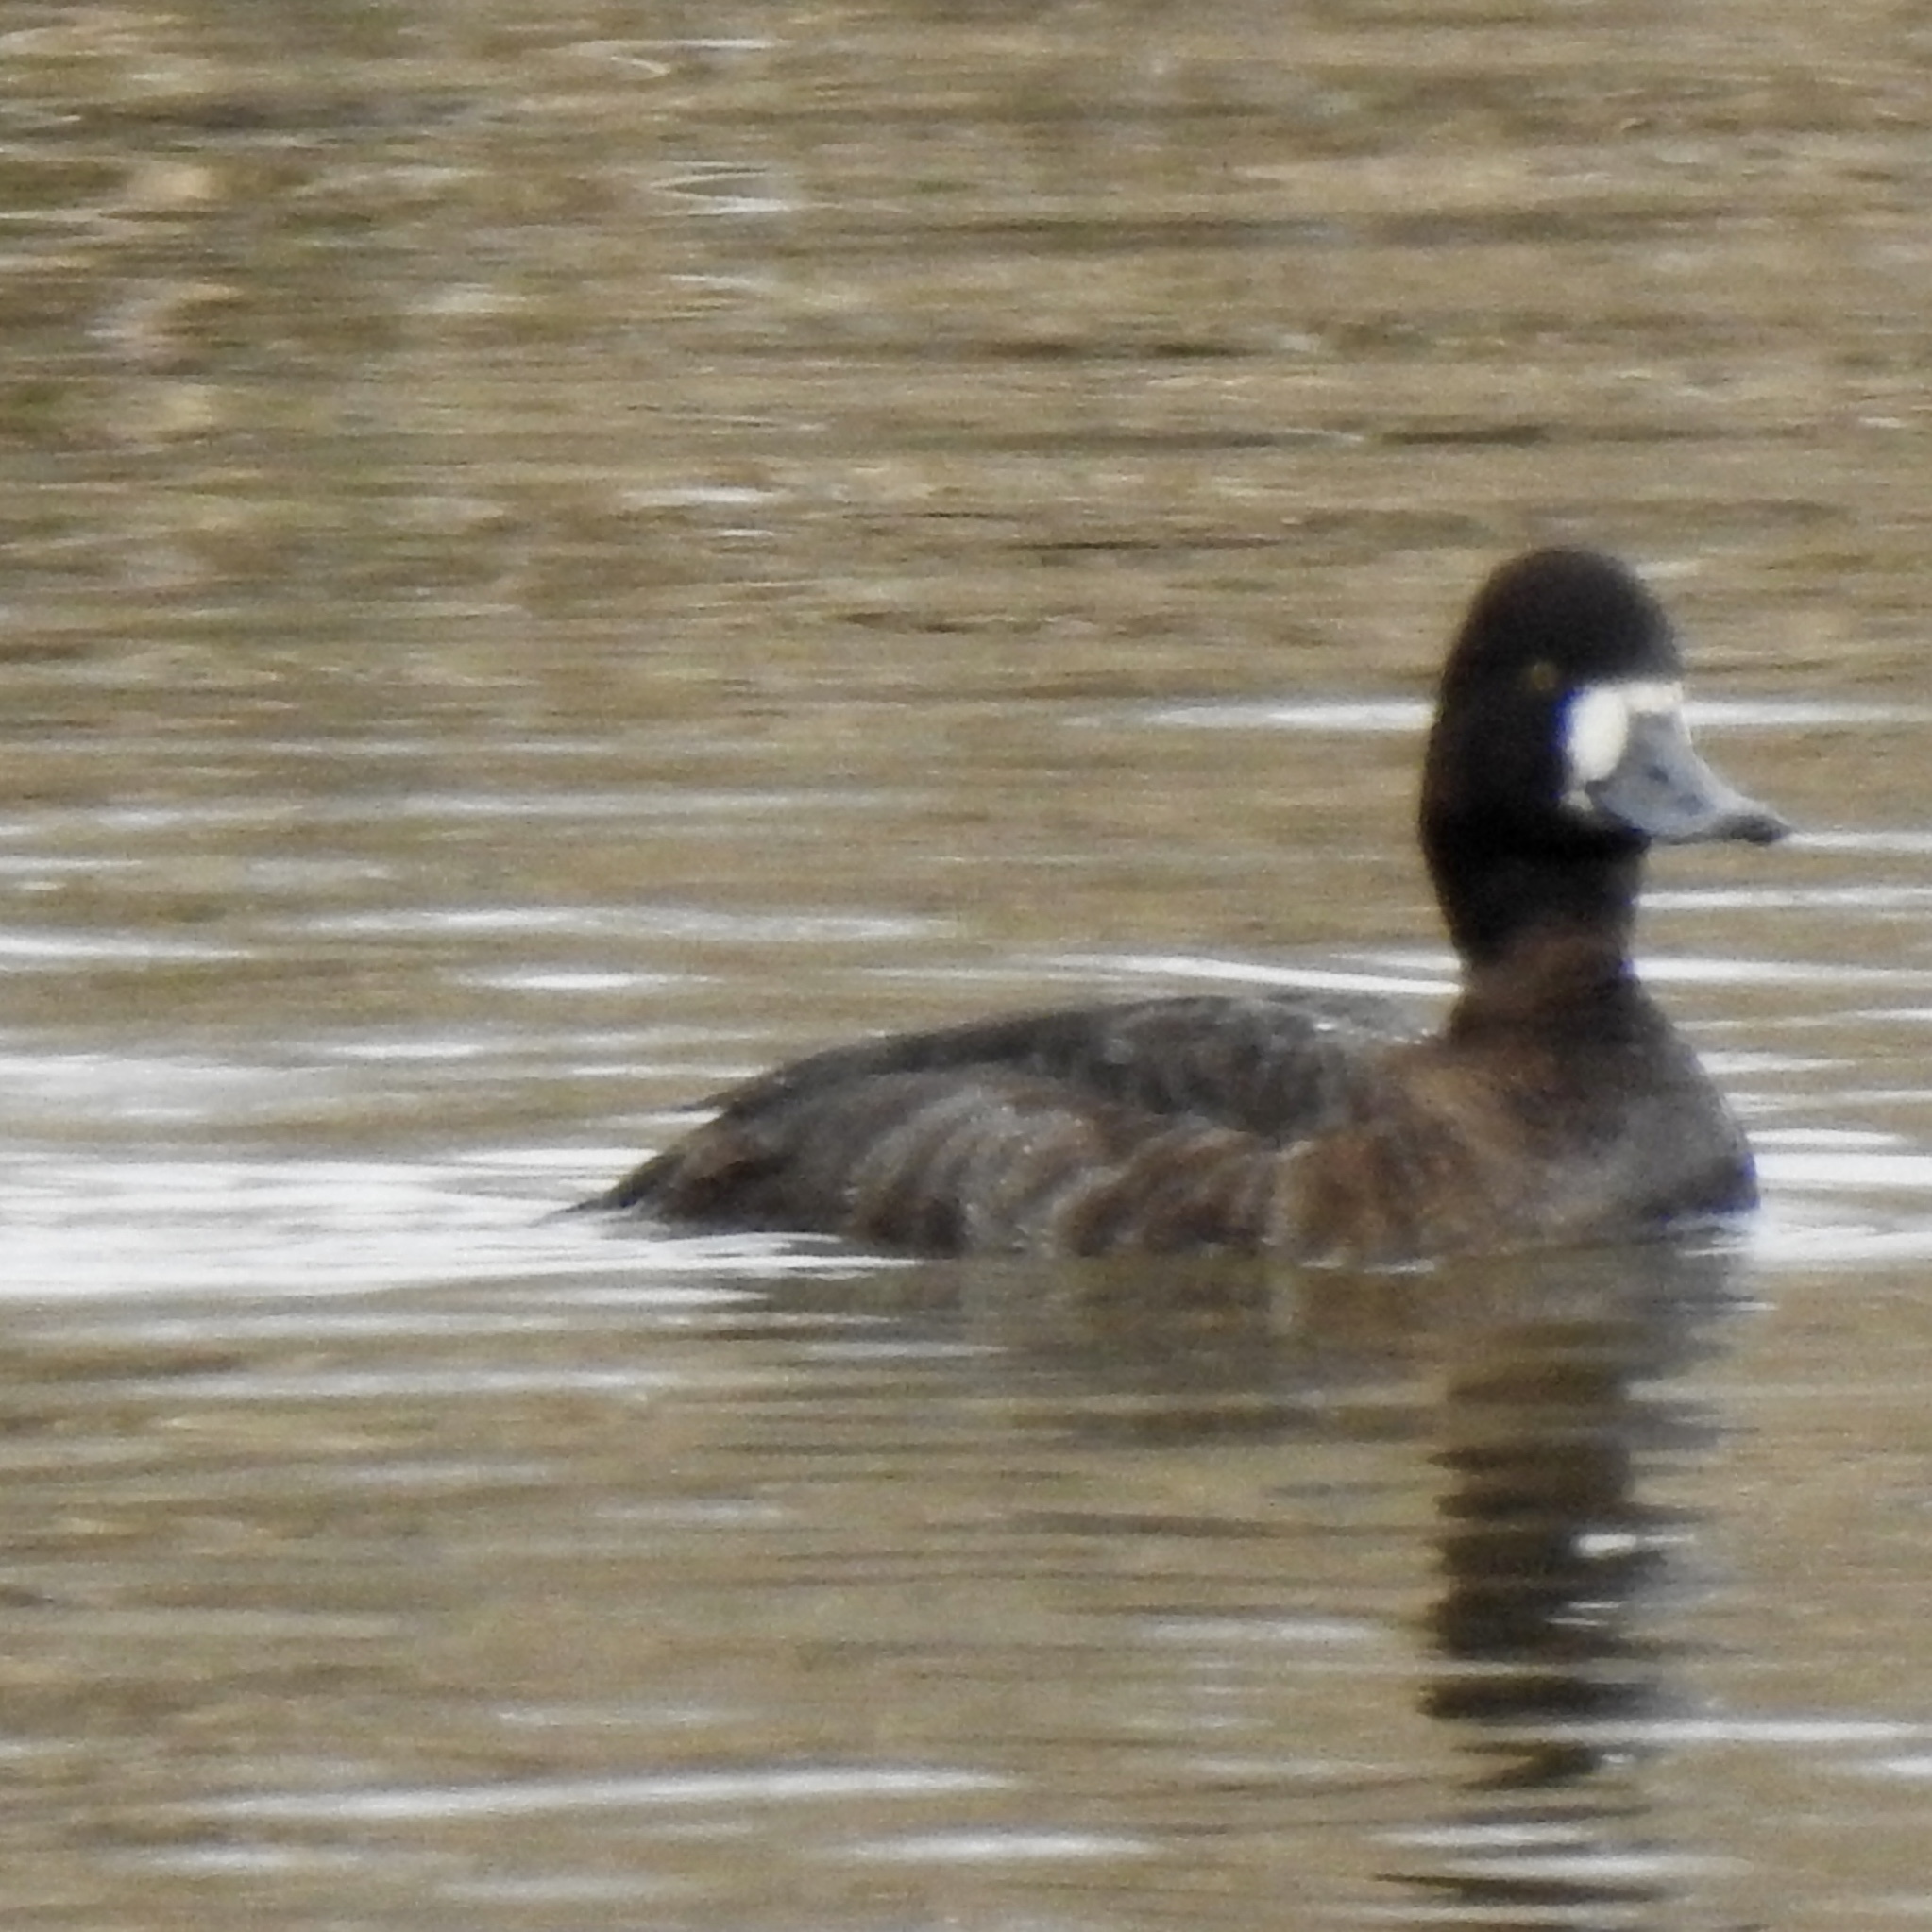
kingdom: Animalia
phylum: Chordata
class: Aves
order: Anseriformes
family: Anatidae
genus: Aythya
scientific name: Aythya affinis
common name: Lesser scaup
